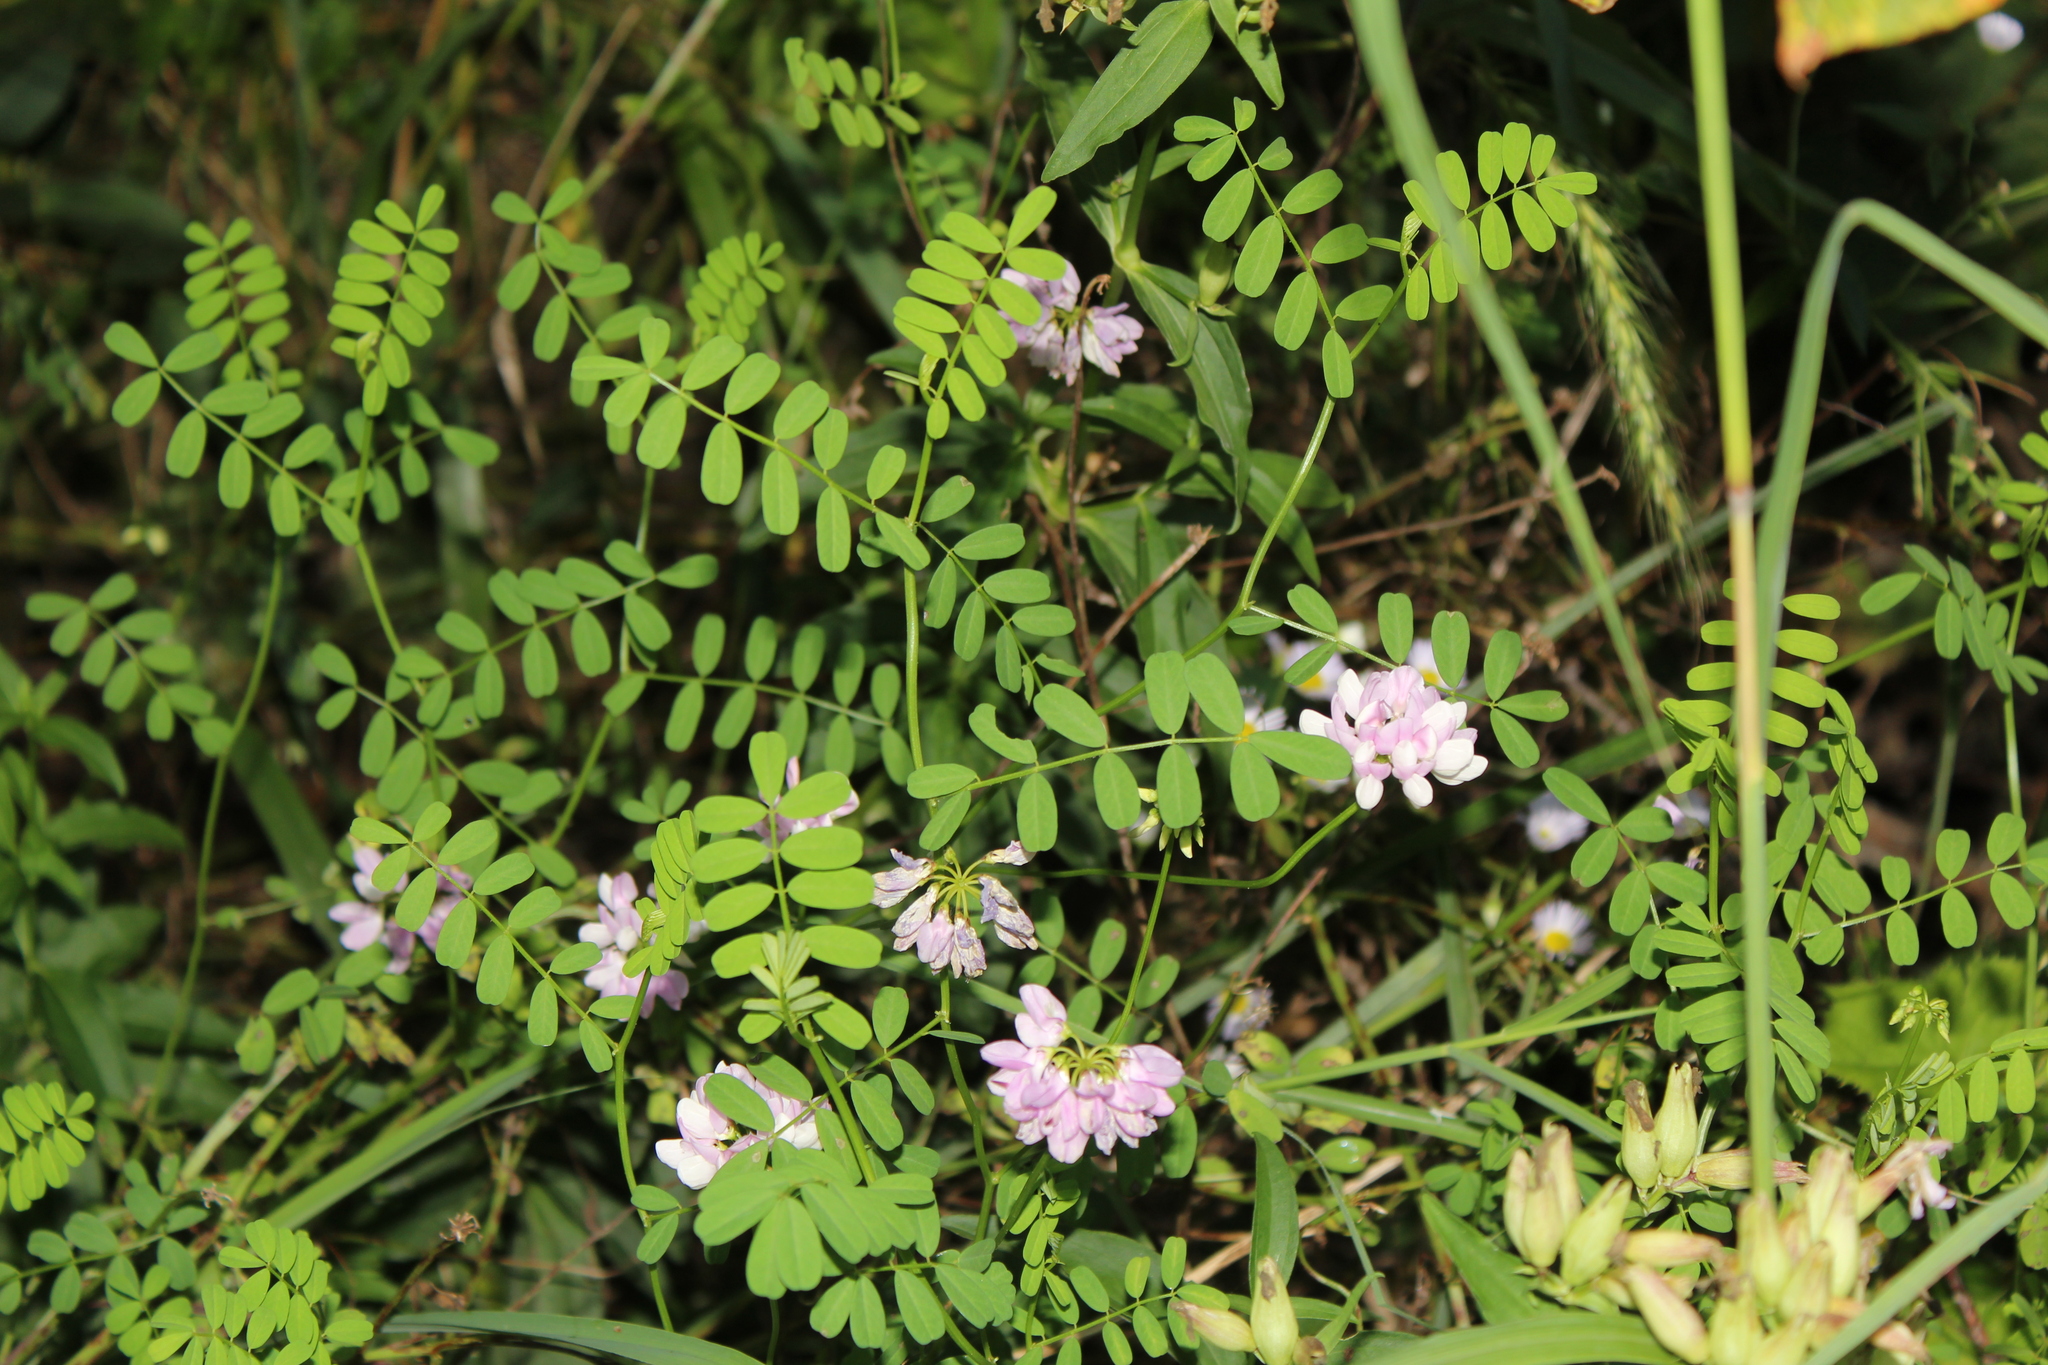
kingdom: Plantae
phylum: Tracheophyta
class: Magnoliopsida
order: Fabales
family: Fabaceae
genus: Coronilla
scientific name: Coronilla varia
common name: Crownvetch
